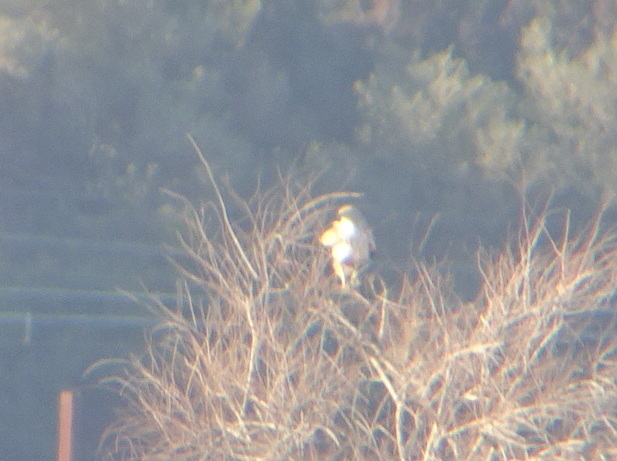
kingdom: Animalia
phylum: Chordata
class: Aves
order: Accipitriformes
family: Accipitridae
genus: Buteo
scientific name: Buteo buteo
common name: Common buzzard
